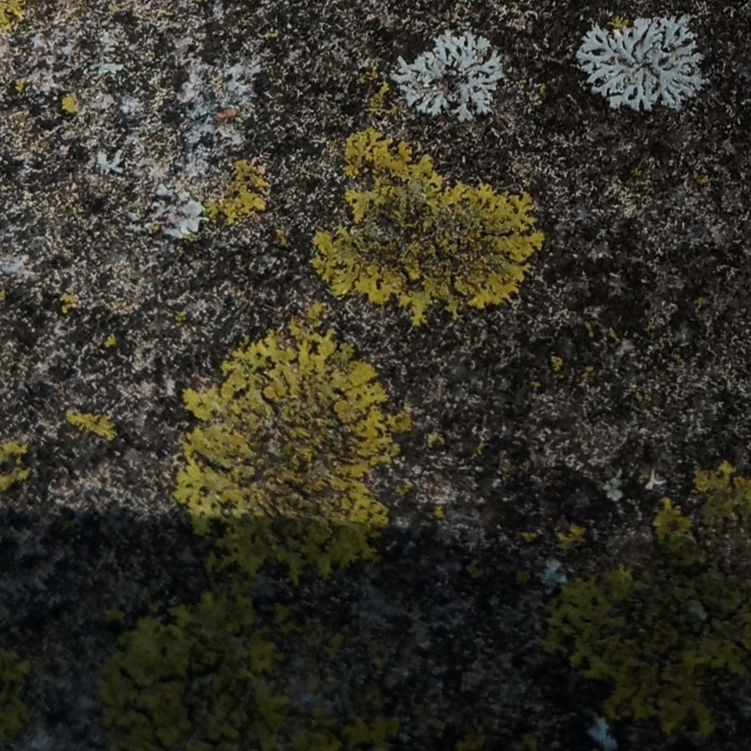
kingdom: Fungi
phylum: Ascomycota
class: Candelariomycetes
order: Candelariales
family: Candelariaceae
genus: Candelaria
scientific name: Candelaria concolor
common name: Candleflame lichen
